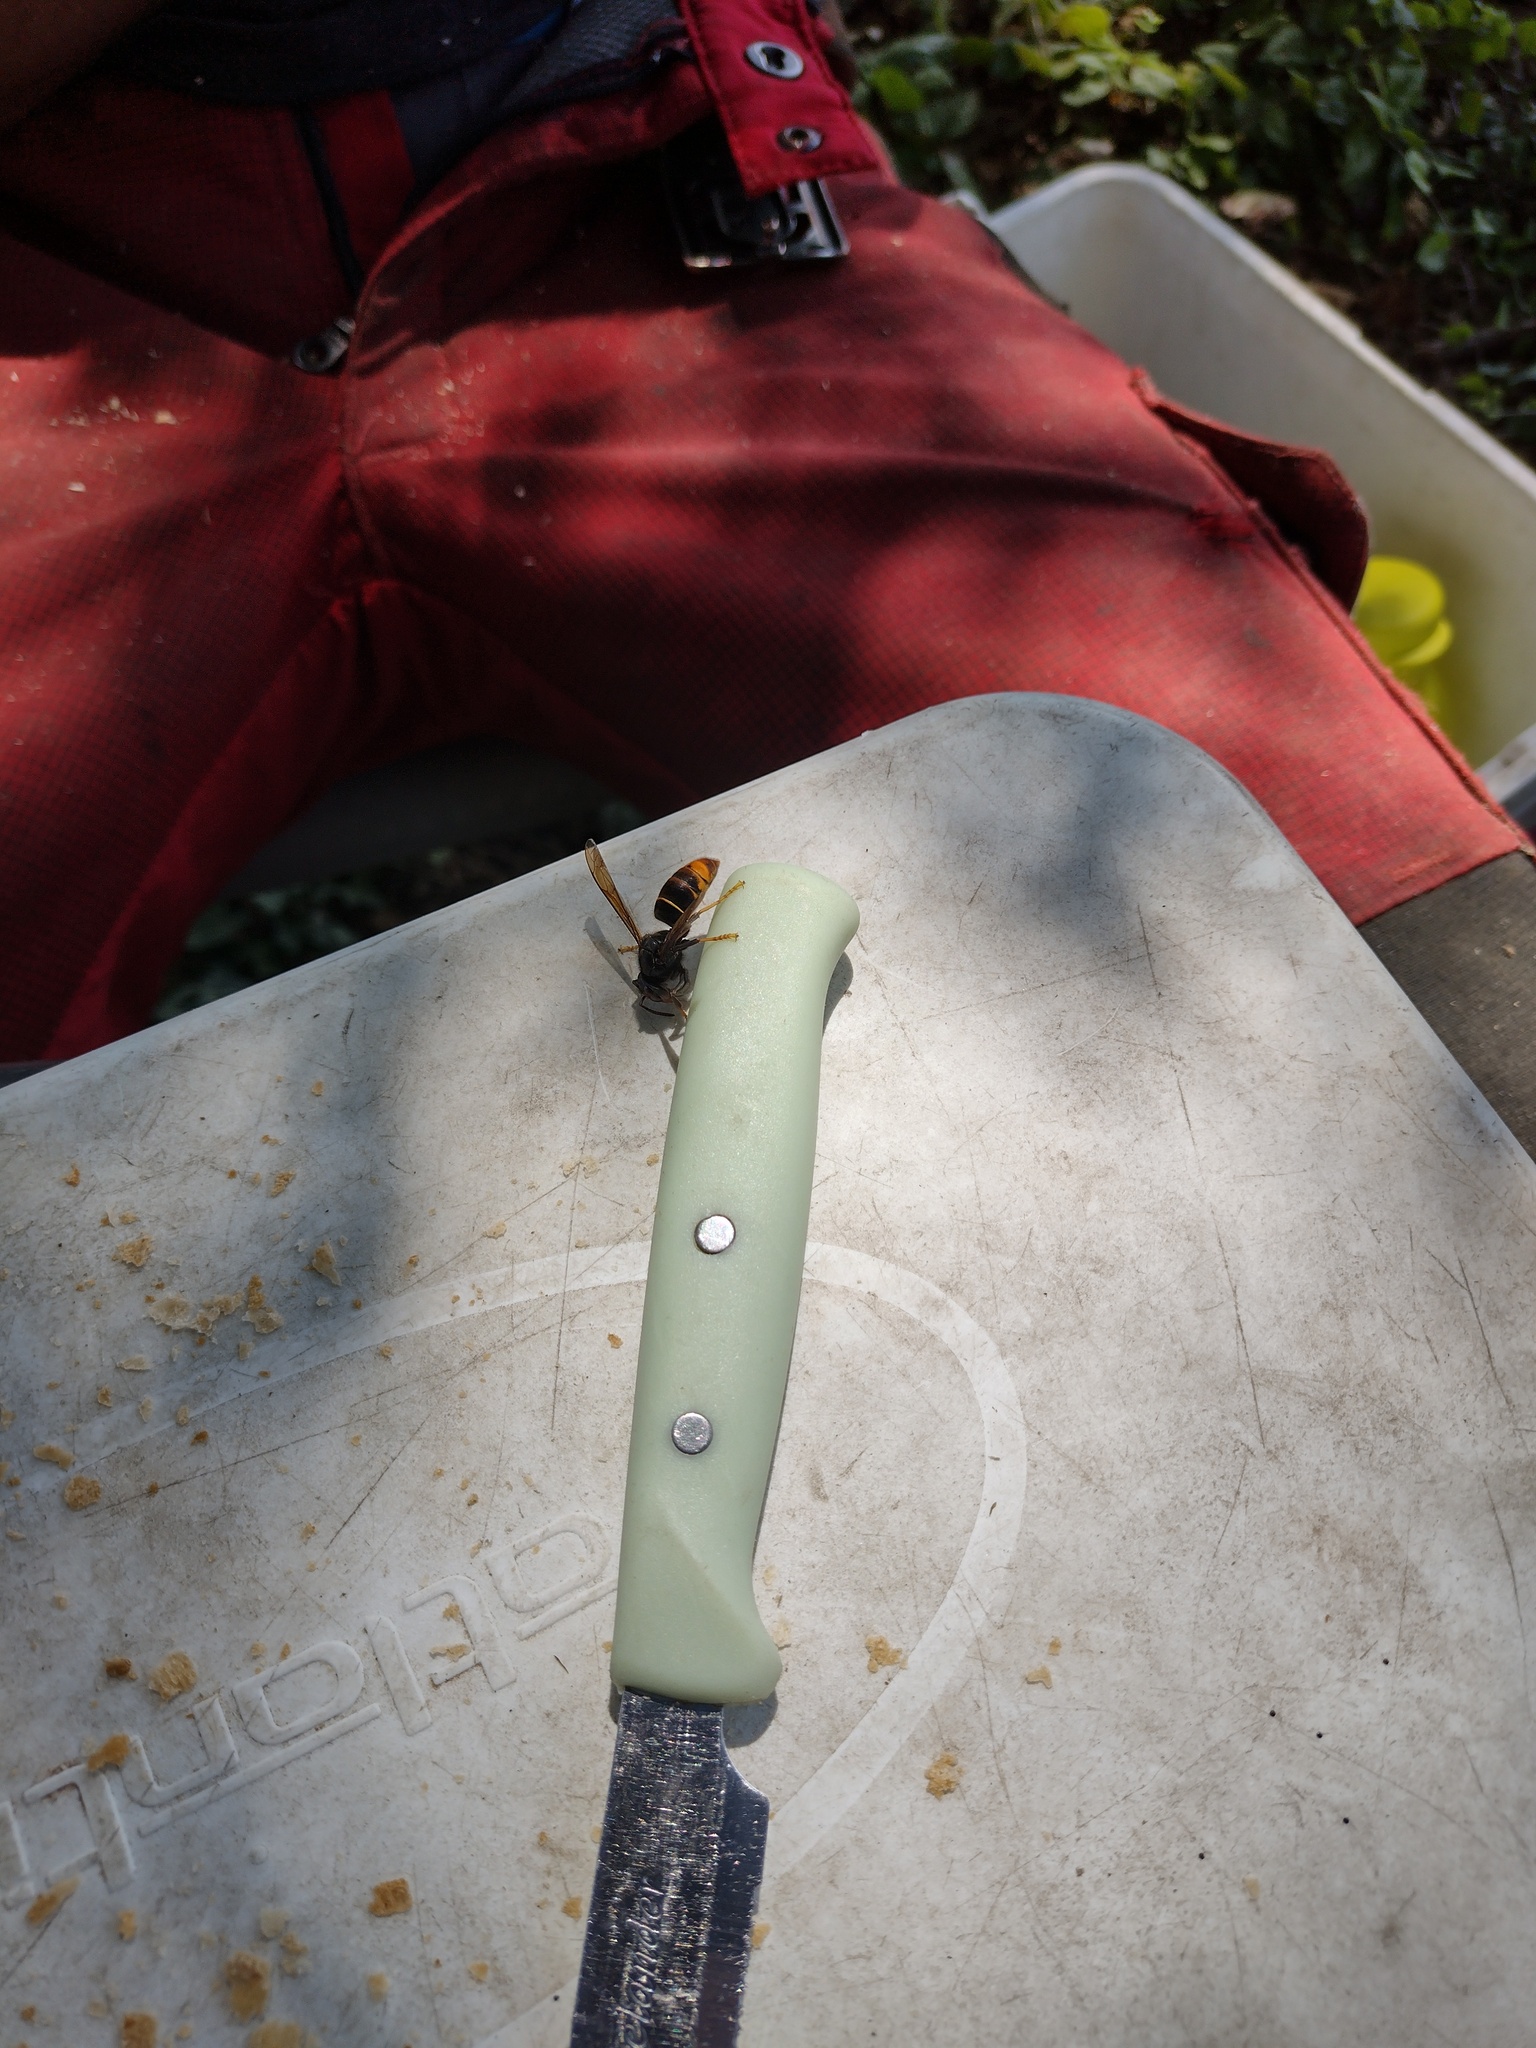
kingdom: Animalia
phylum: Arthropoda
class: Insecta
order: Hymenoptera
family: Vespidae
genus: Vespa
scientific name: Vespa velutina
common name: Asian hornet
